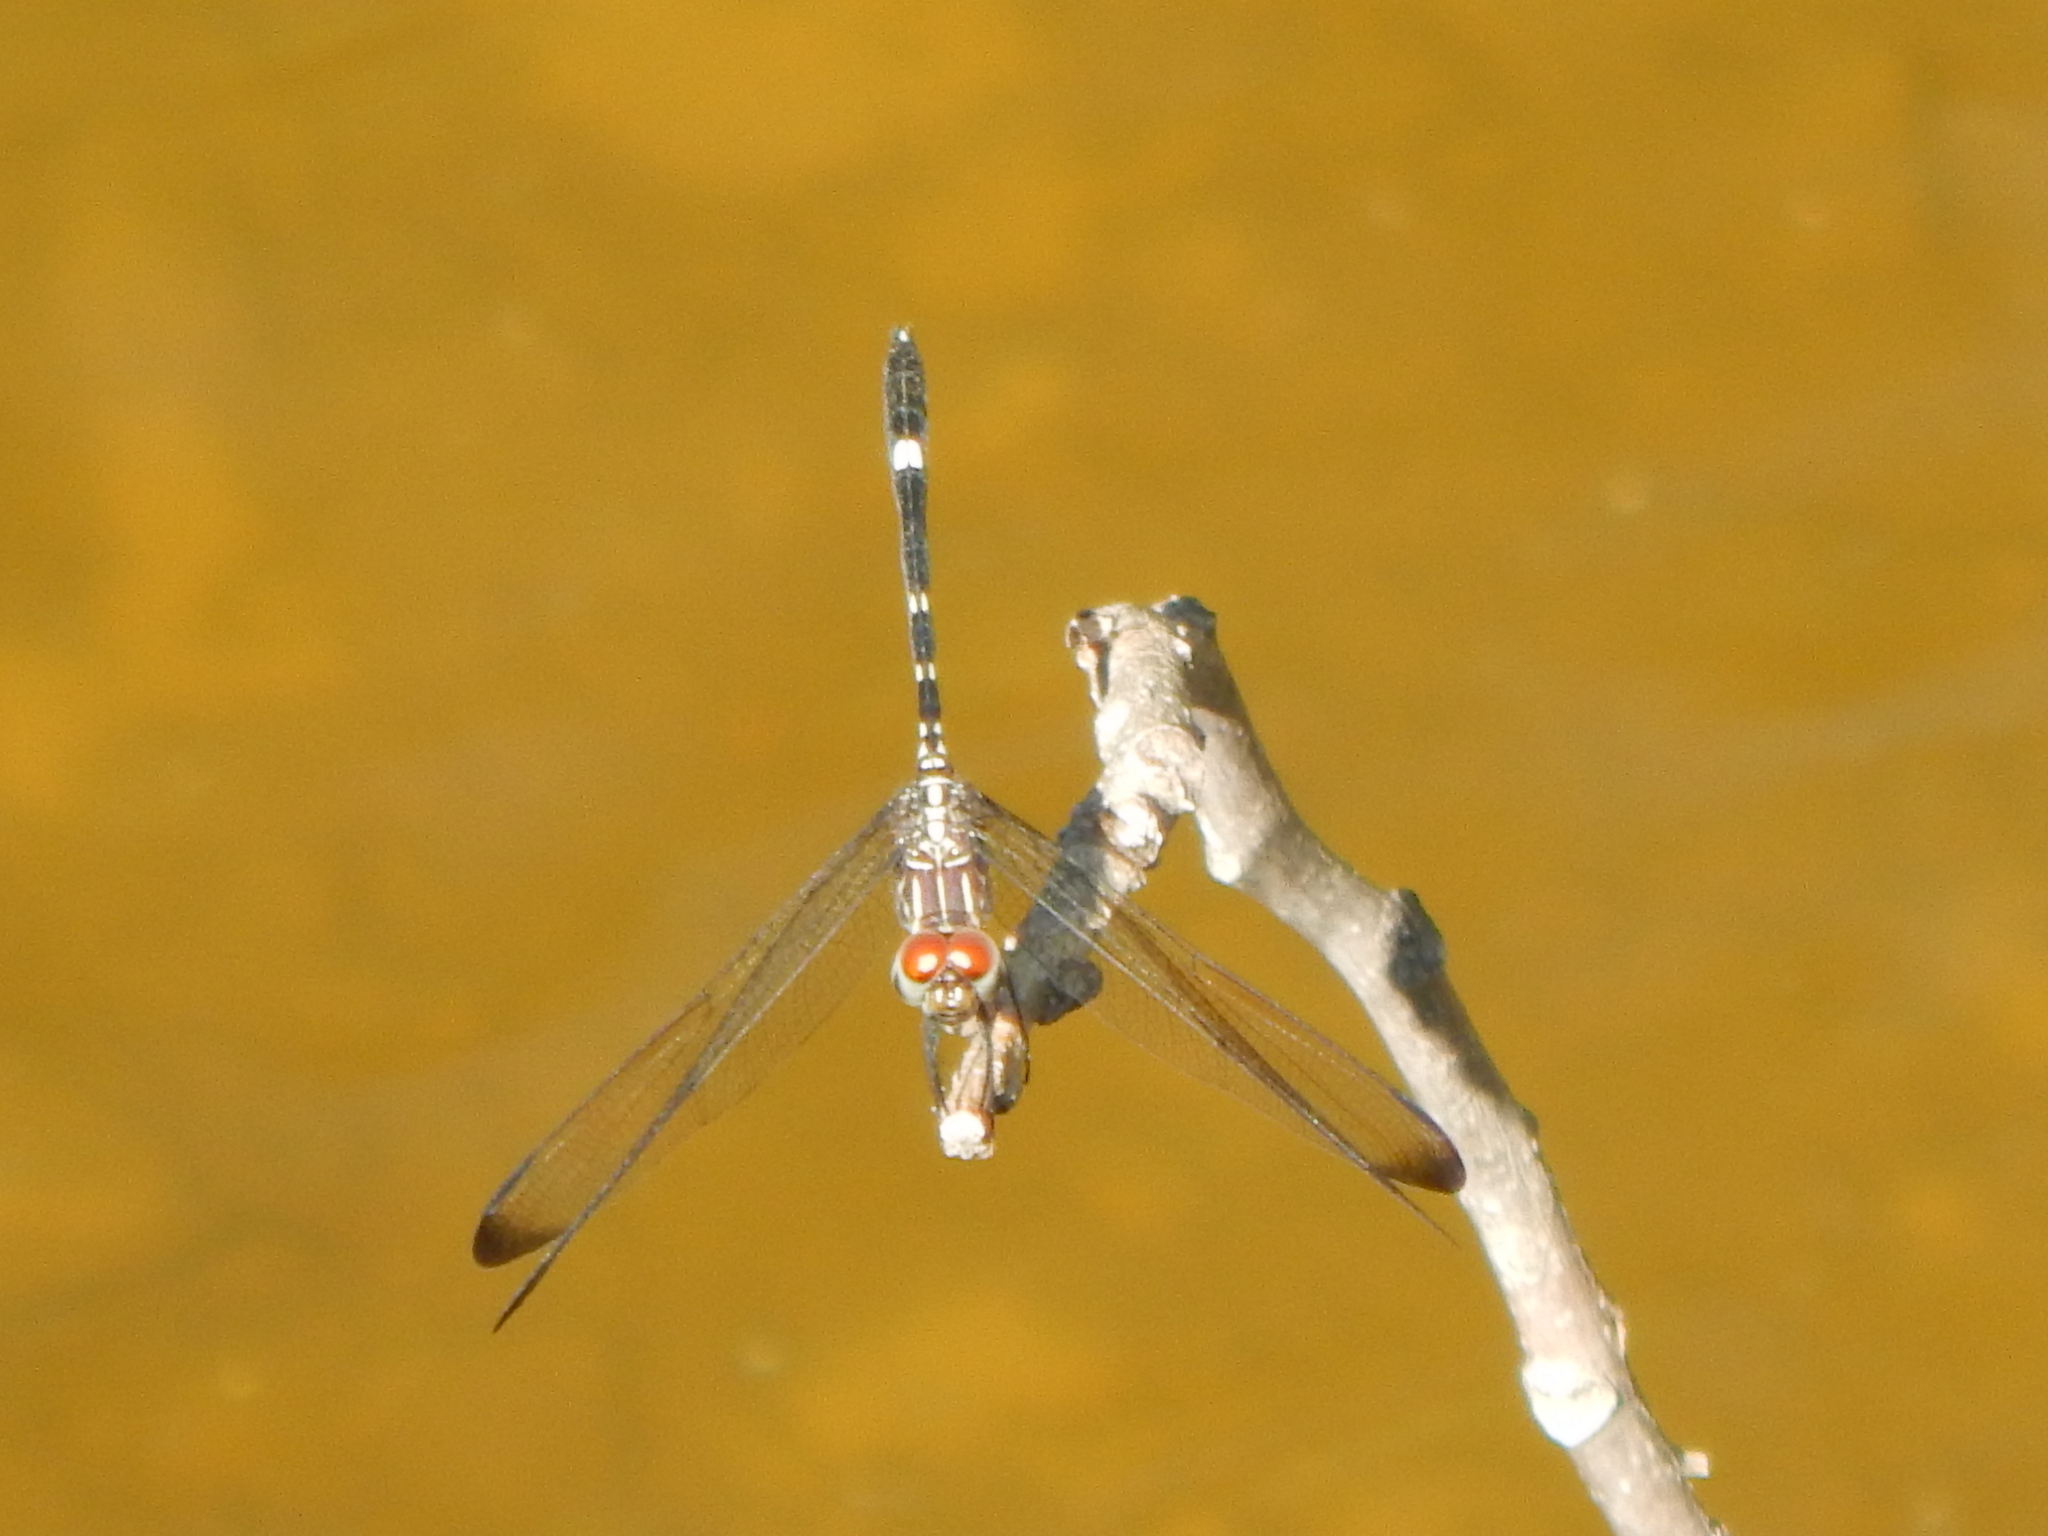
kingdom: Animalia
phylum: Arthropoda
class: Insecta
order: Odonata
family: Libellulidae
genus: Dythemis
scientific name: Dythemis velox
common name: Swift setwing
